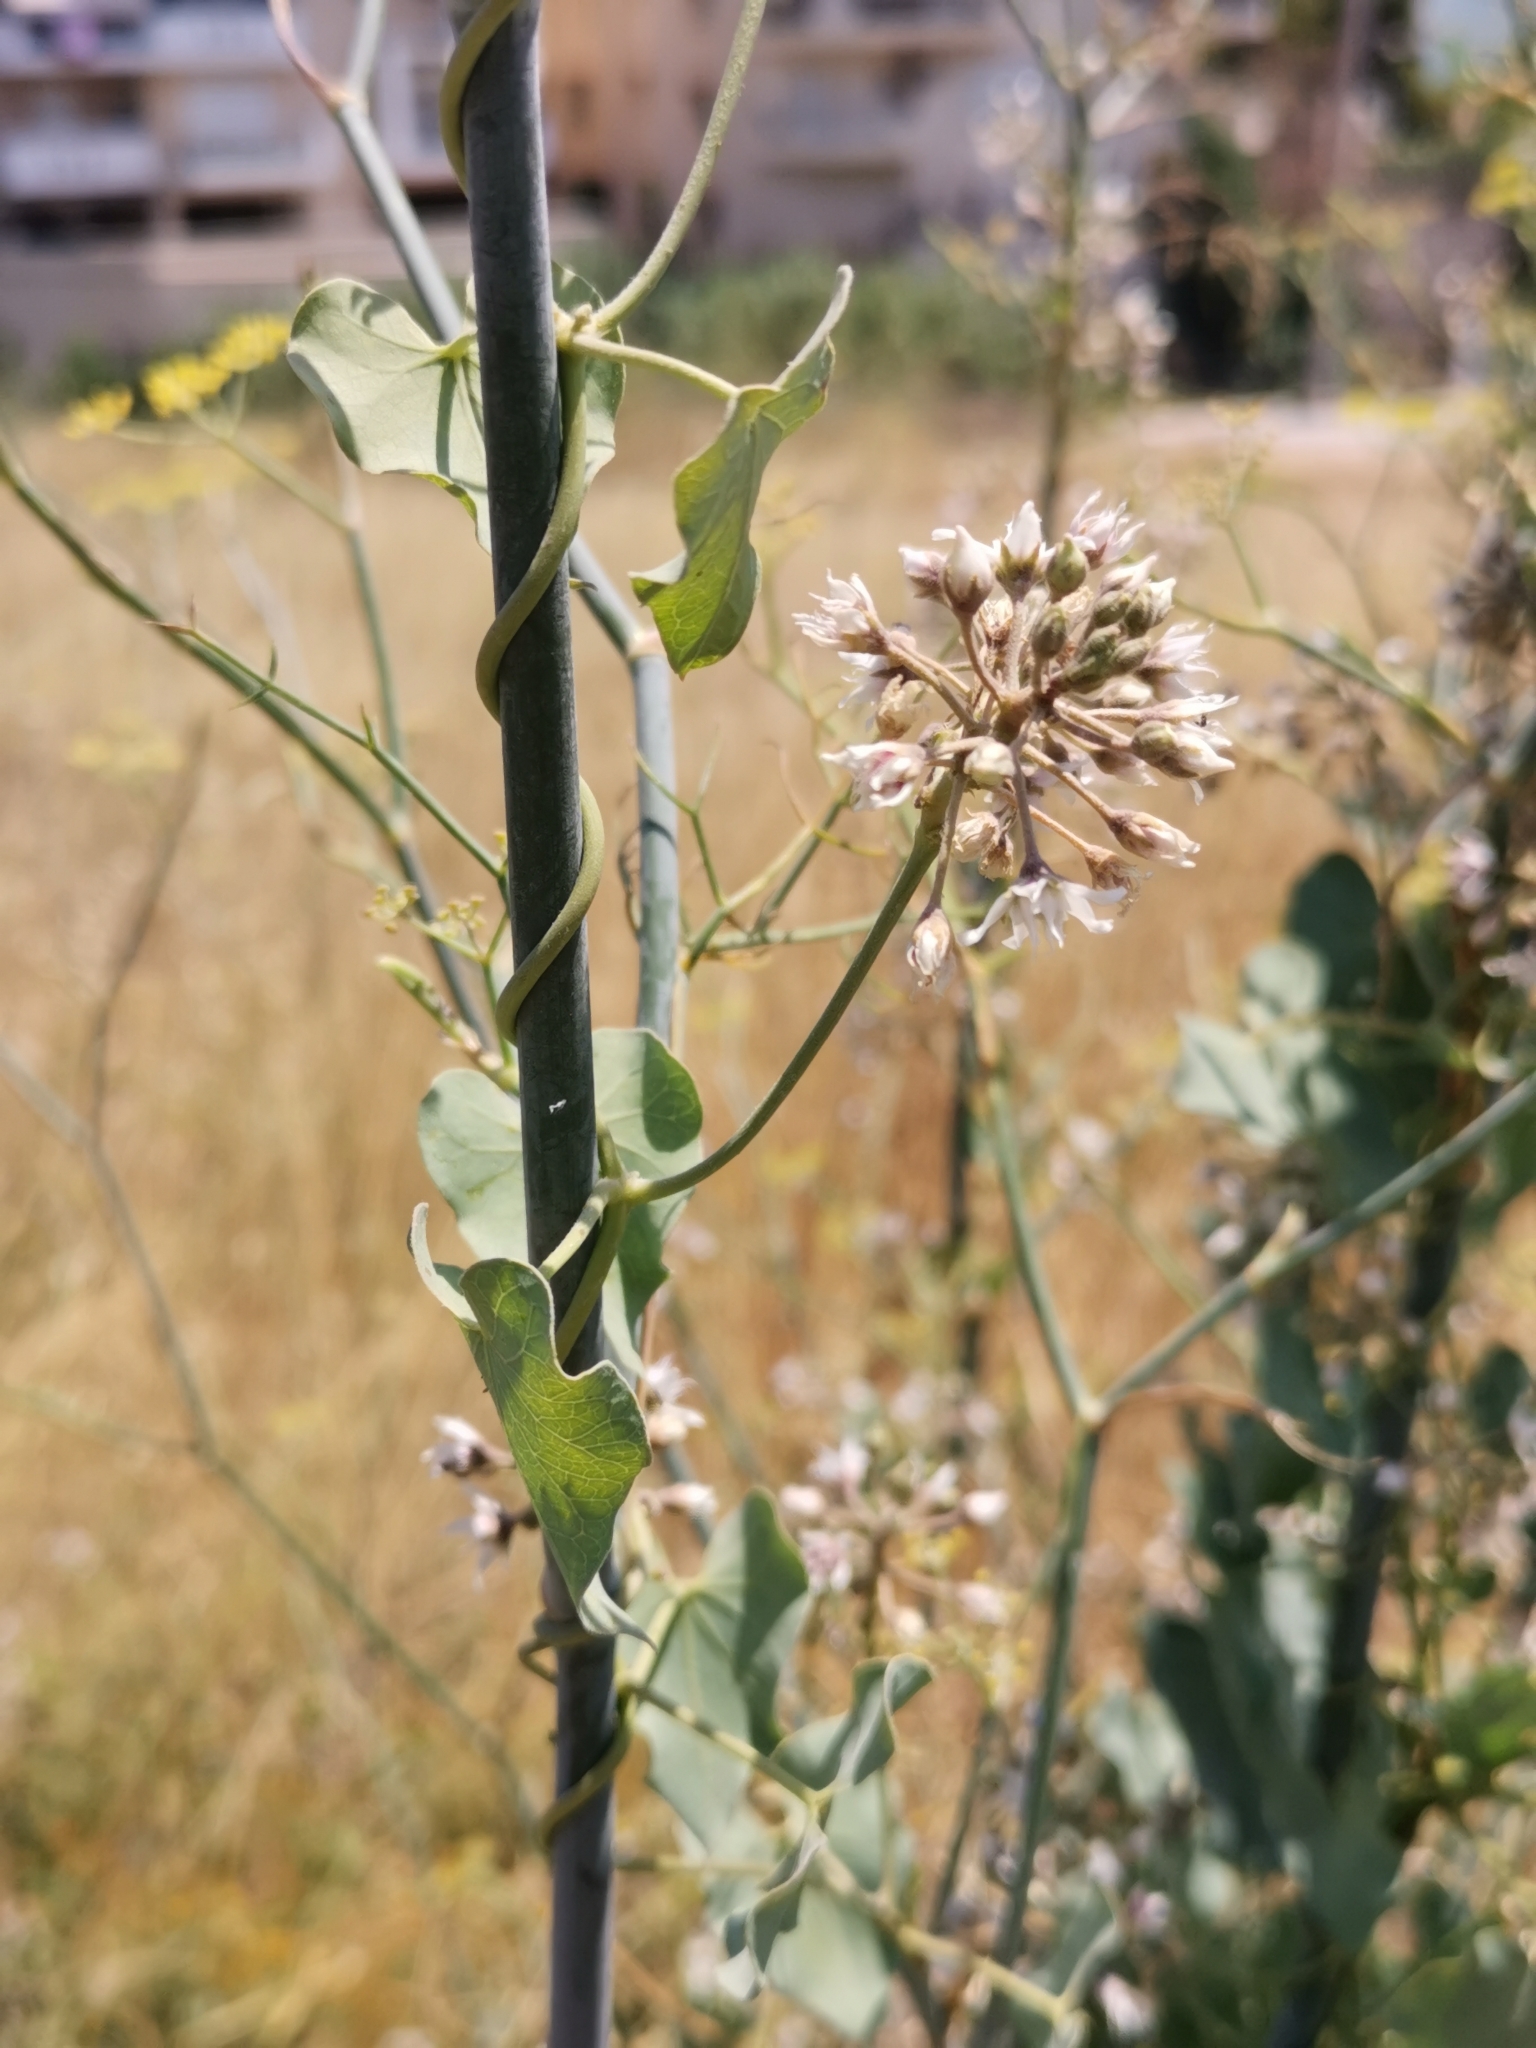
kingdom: Plantae
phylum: Tracheophyta
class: Magnoliopsida
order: Gentianales
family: Apocynaceae
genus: Cynanchum
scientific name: Cynanchum acutum
